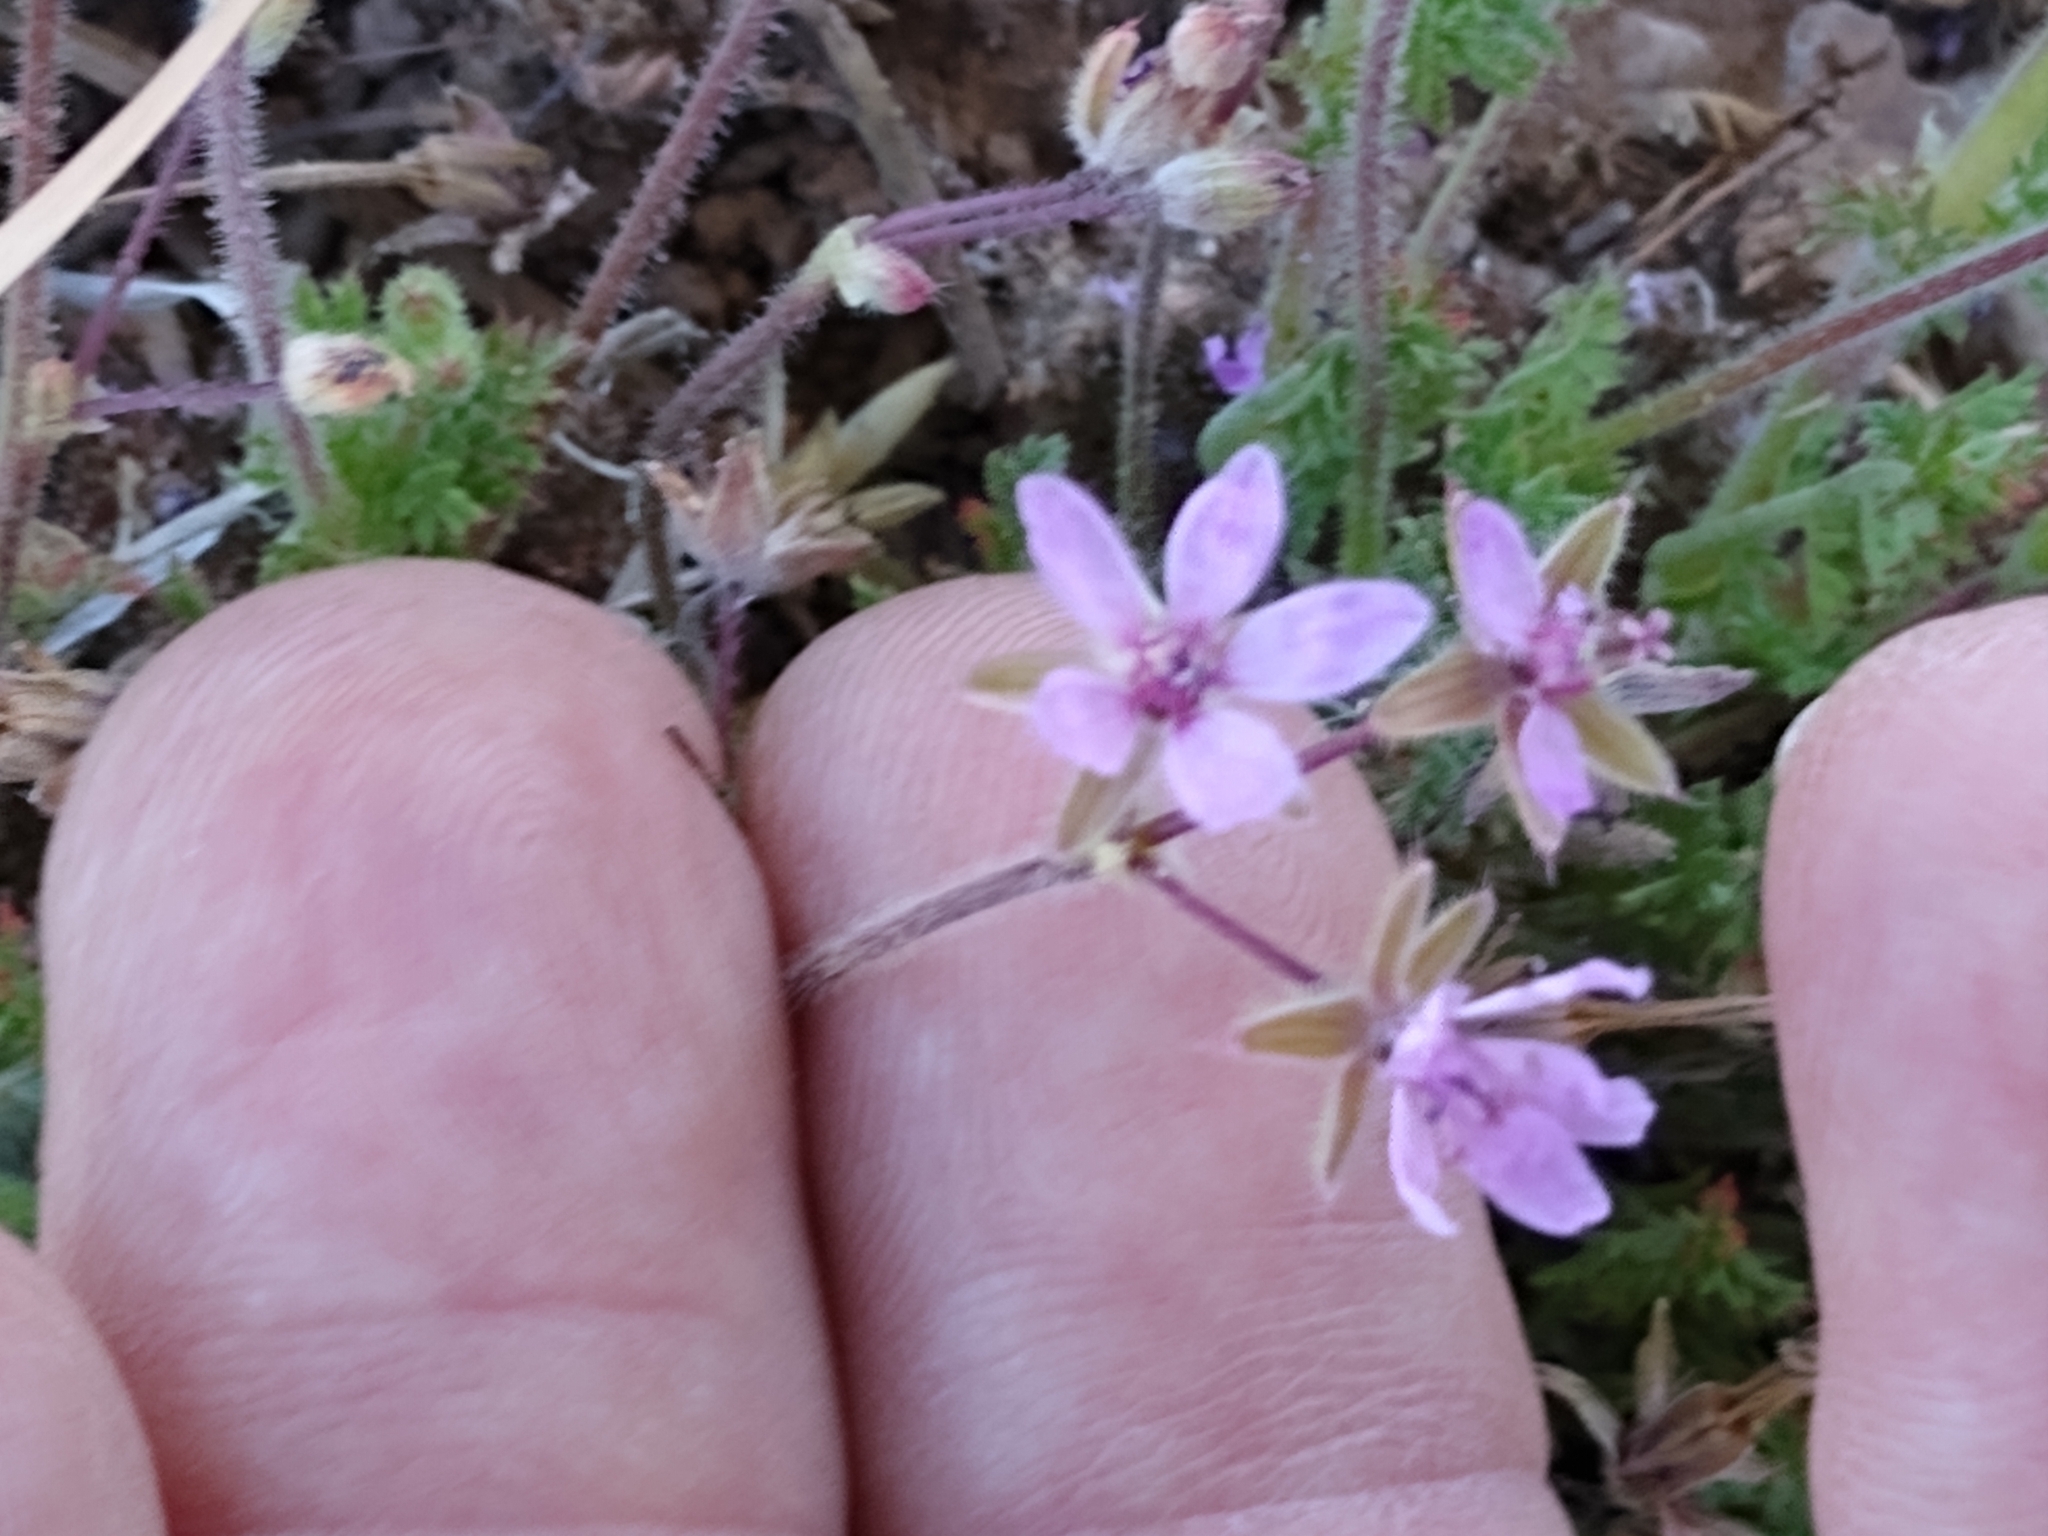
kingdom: Plantae
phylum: Tracheophyta
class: Magnoliopsida
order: Geraniales
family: Geraniaceae
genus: Erodium
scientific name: Erodium cicutarium
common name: Common stork's-bill
